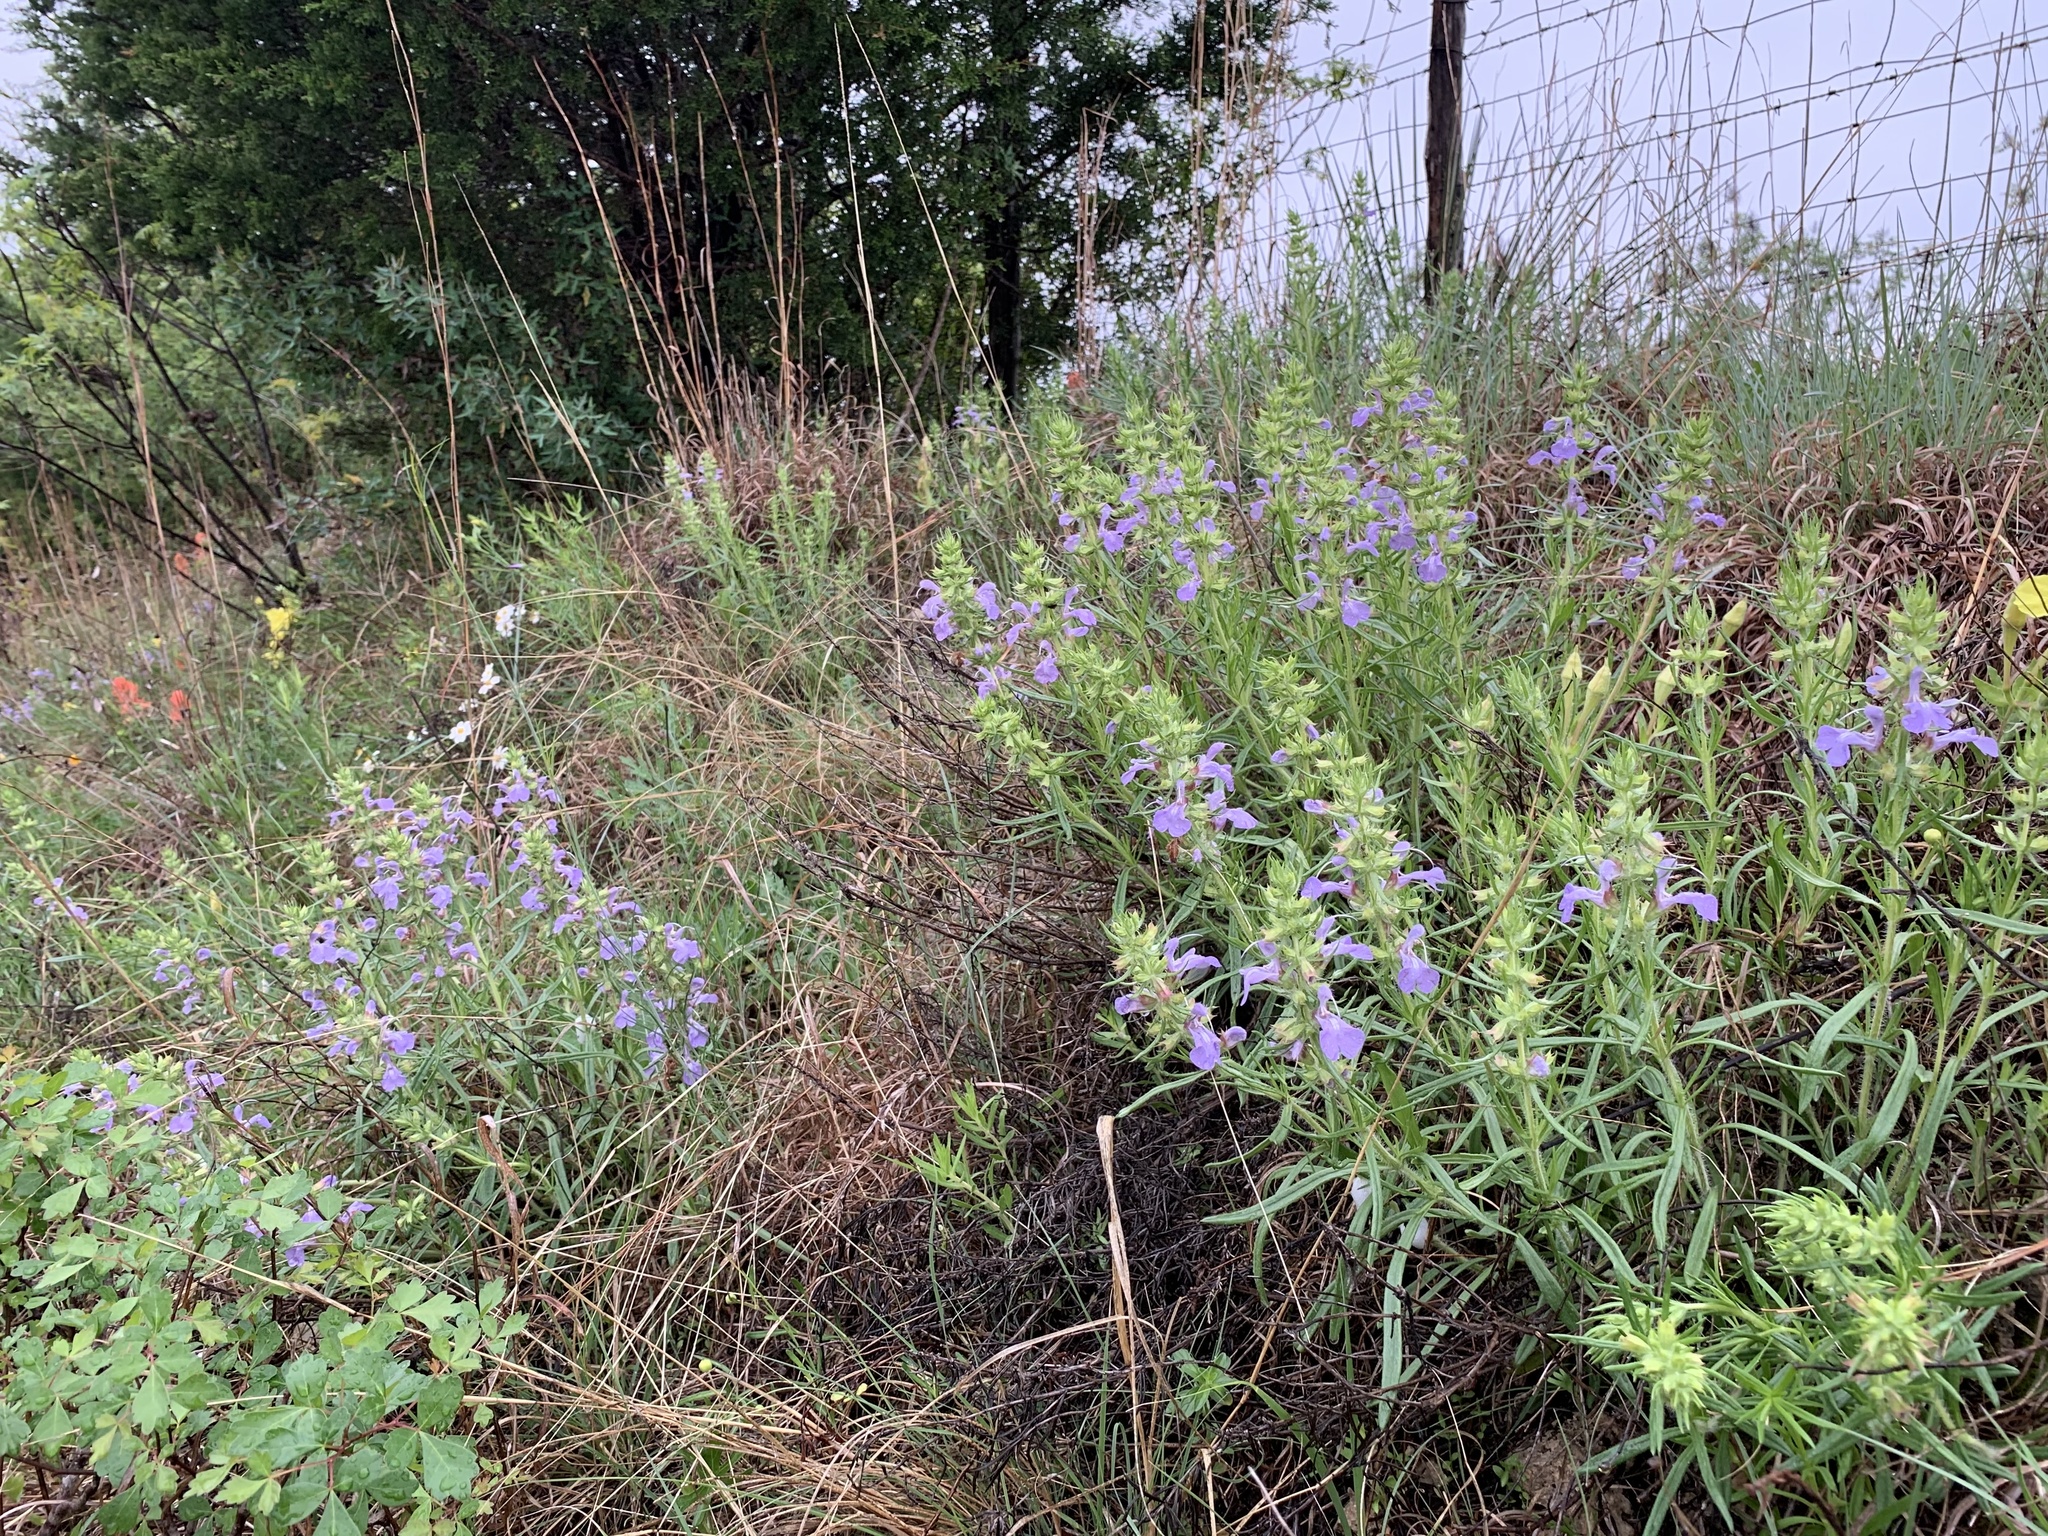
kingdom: Plantae
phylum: Tracheophyta
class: Magnoliopsida
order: Lamiales
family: Lamiaceae
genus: Salvia
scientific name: Salvia engelmannii
